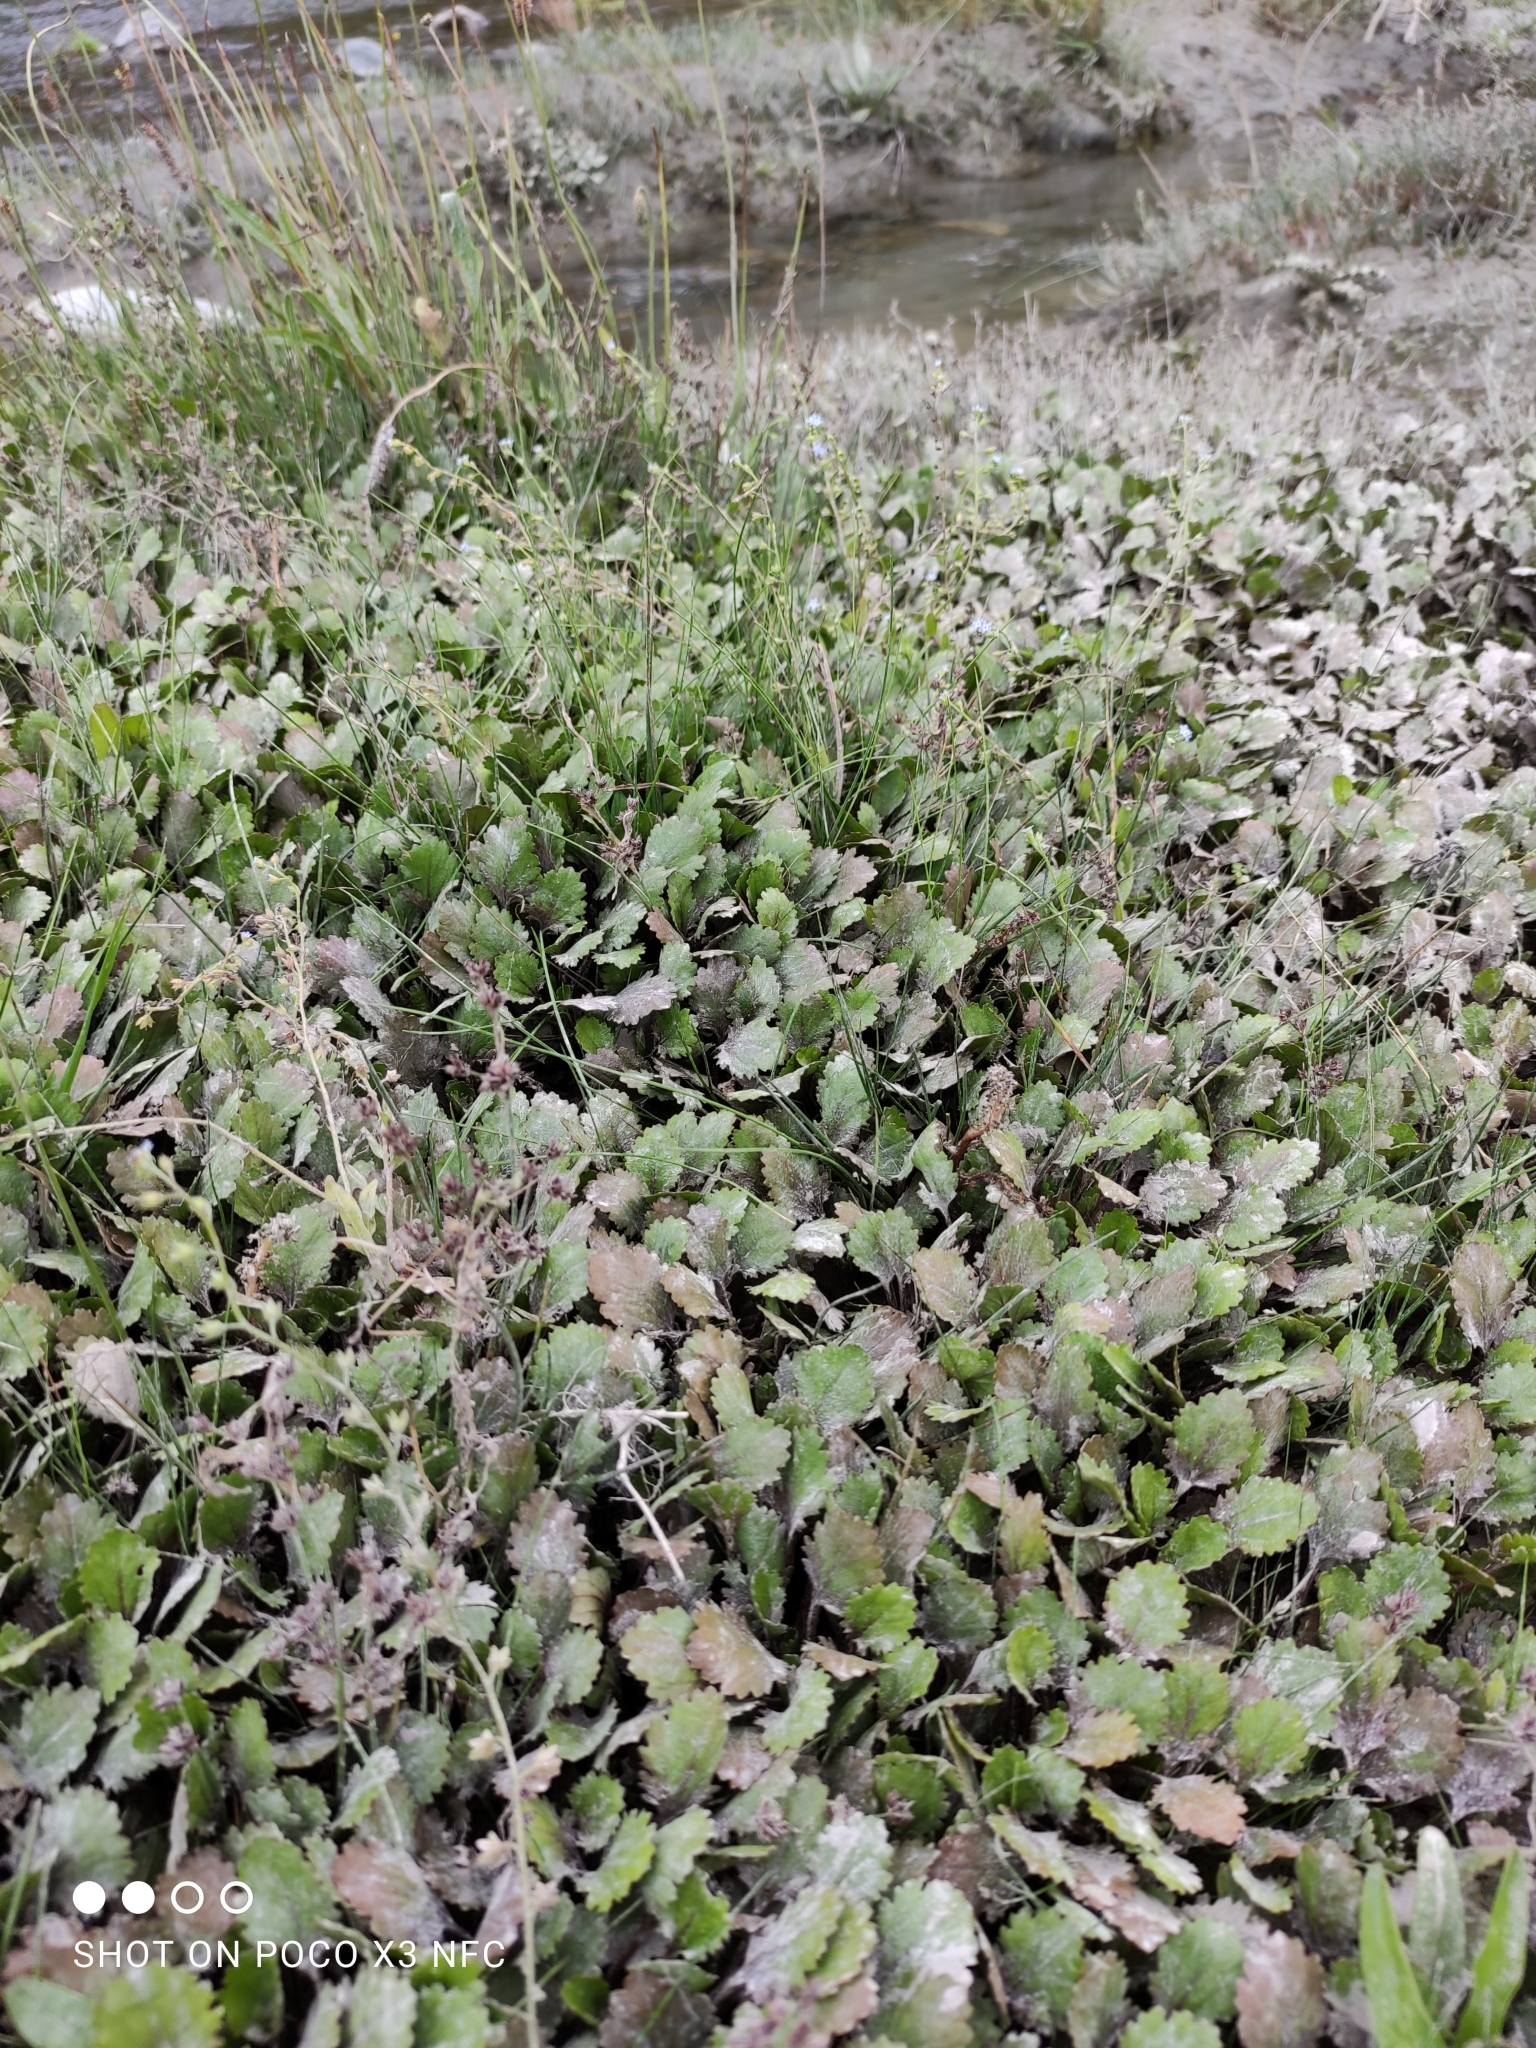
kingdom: Plantae
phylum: Tracheophyta
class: Magnoliopsida
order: Gunnerales
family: Gunneraceae
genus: Gunnera
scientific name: Gunnera dentata
